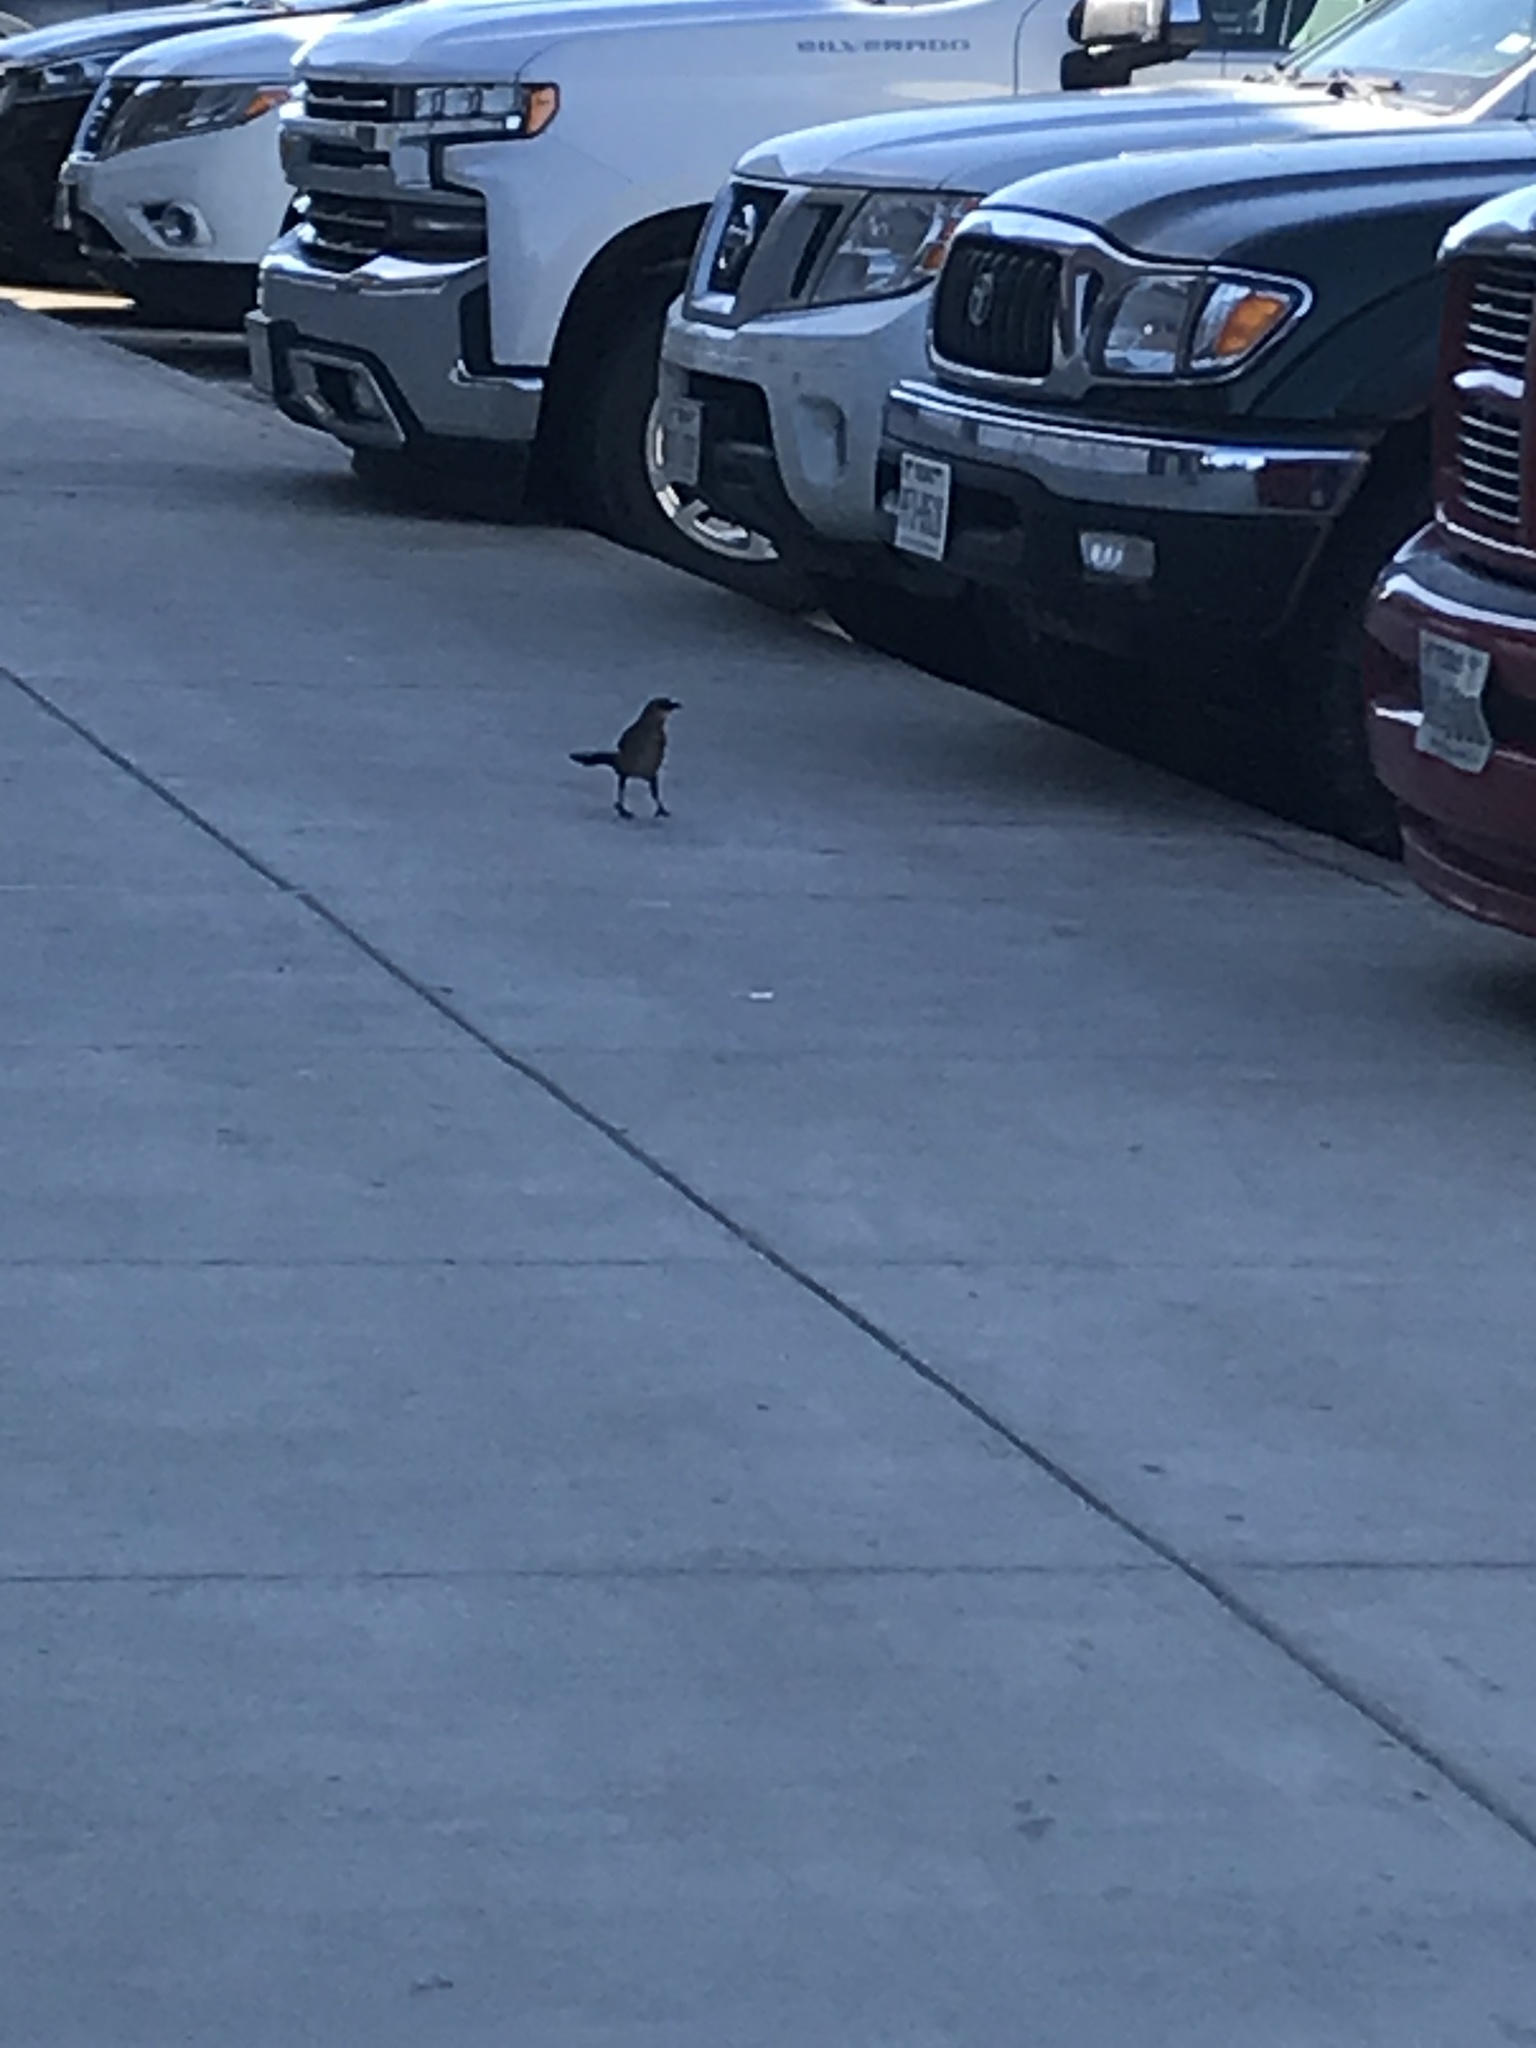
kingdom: Animalia
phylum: Chordata
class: Aves
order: Passeriformes
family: Icteridae
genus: Quiscalus
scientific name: Quiscalus mexicanus
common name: Great-tailed grackle
